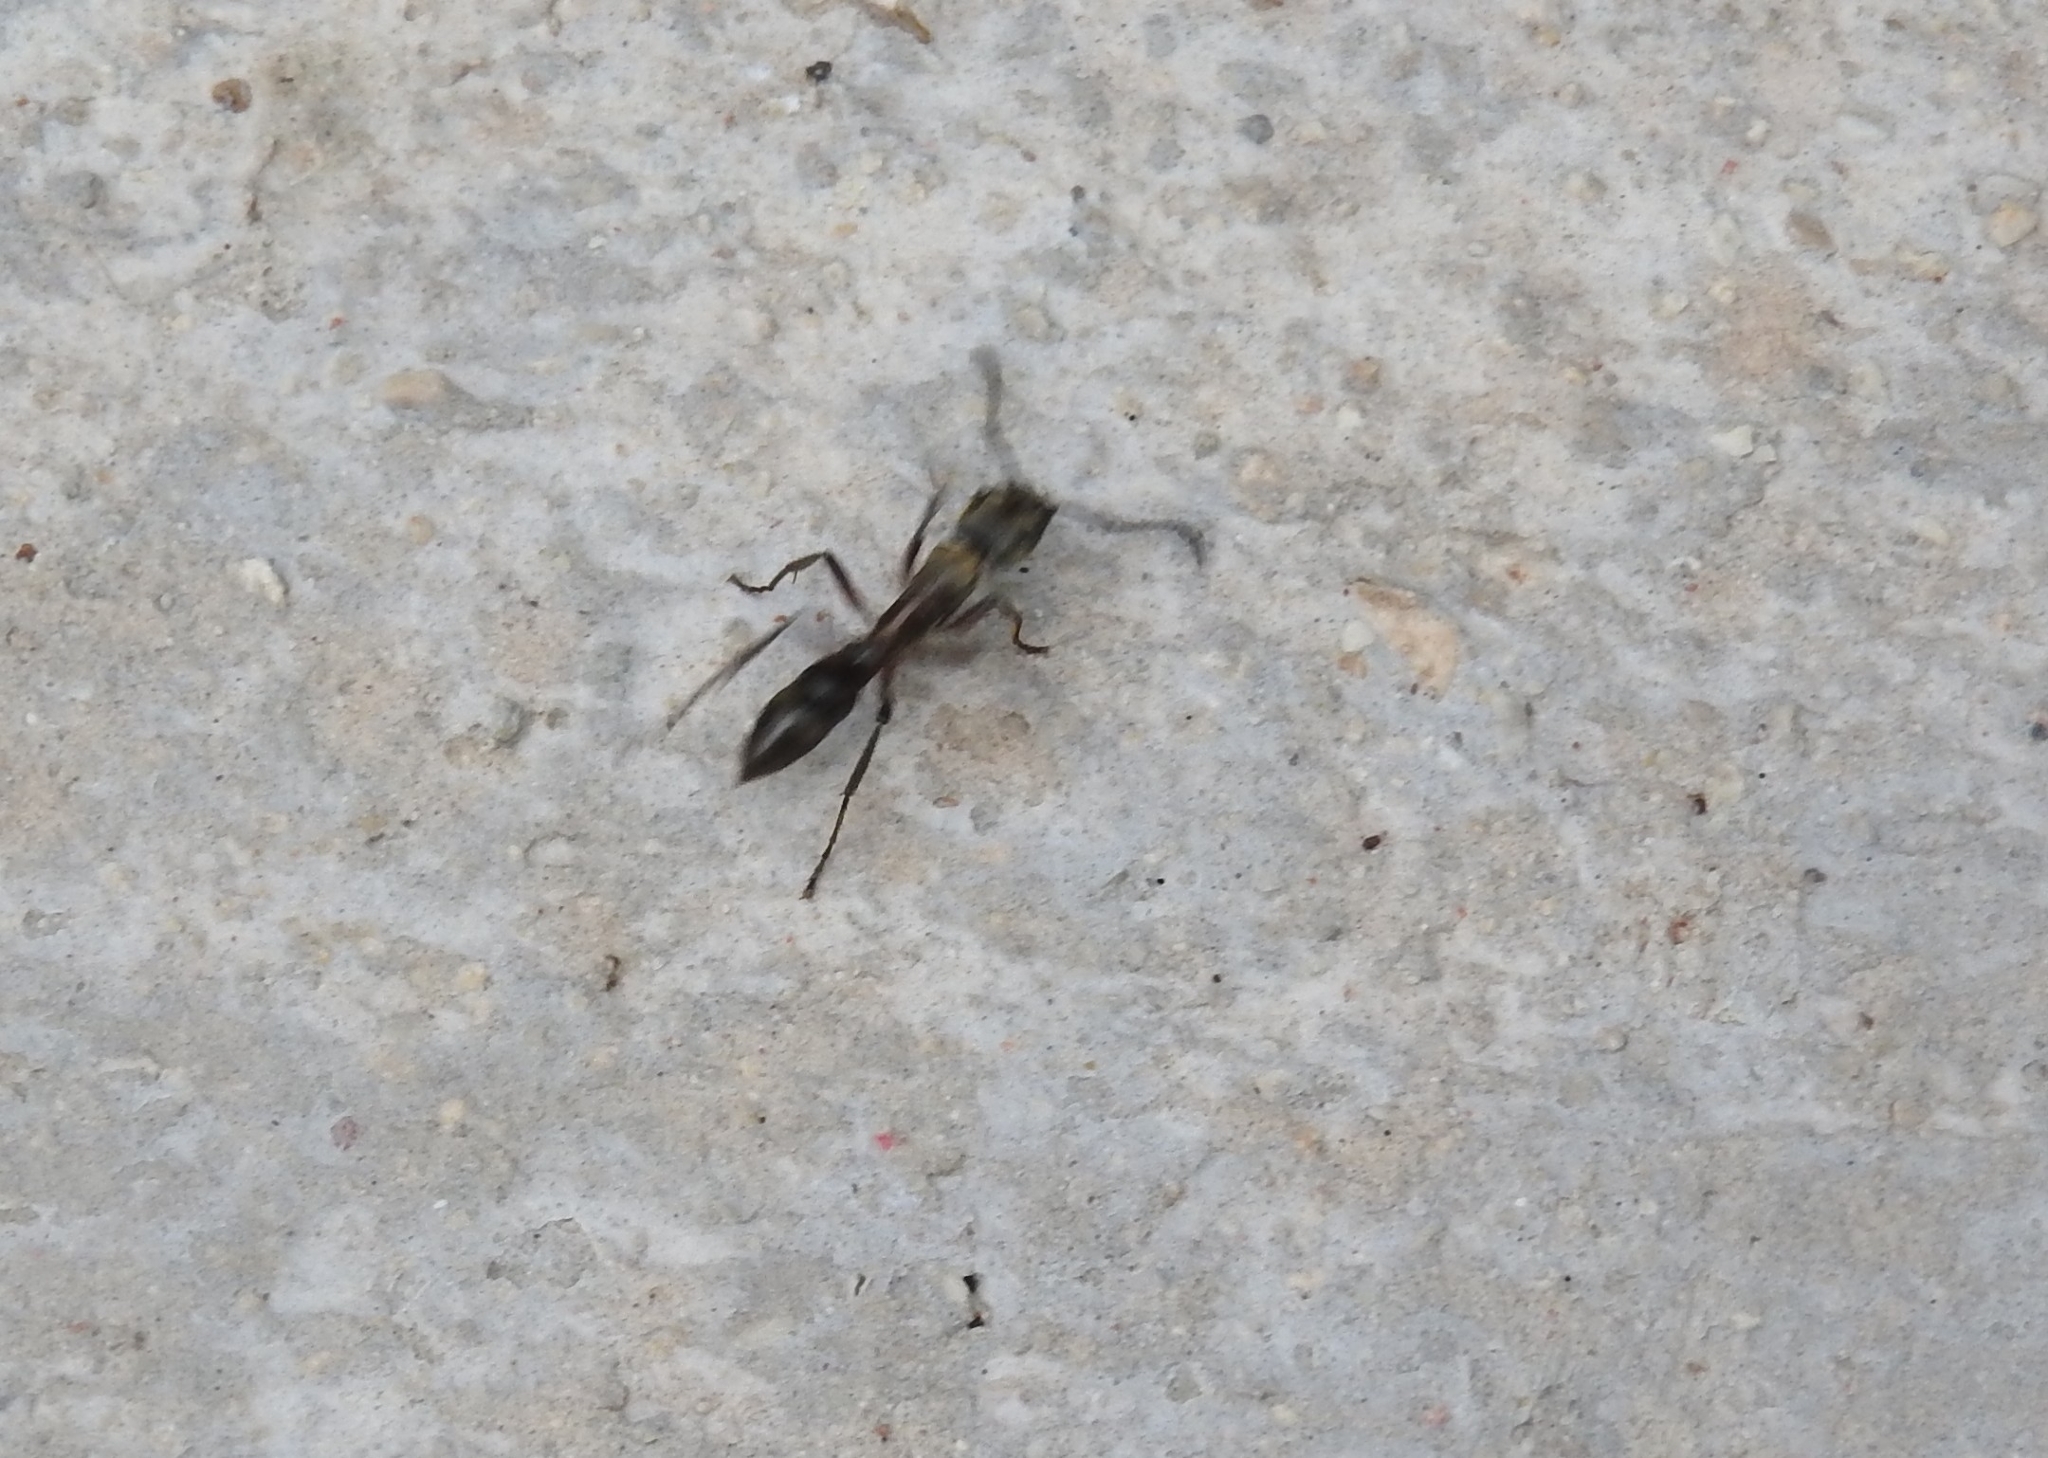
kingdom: Animalia
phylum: Arthropoda
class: Insecta
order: Hymenoptera
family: Formicidae
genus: Pachycondyla
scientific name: Pachycondyla villosa
